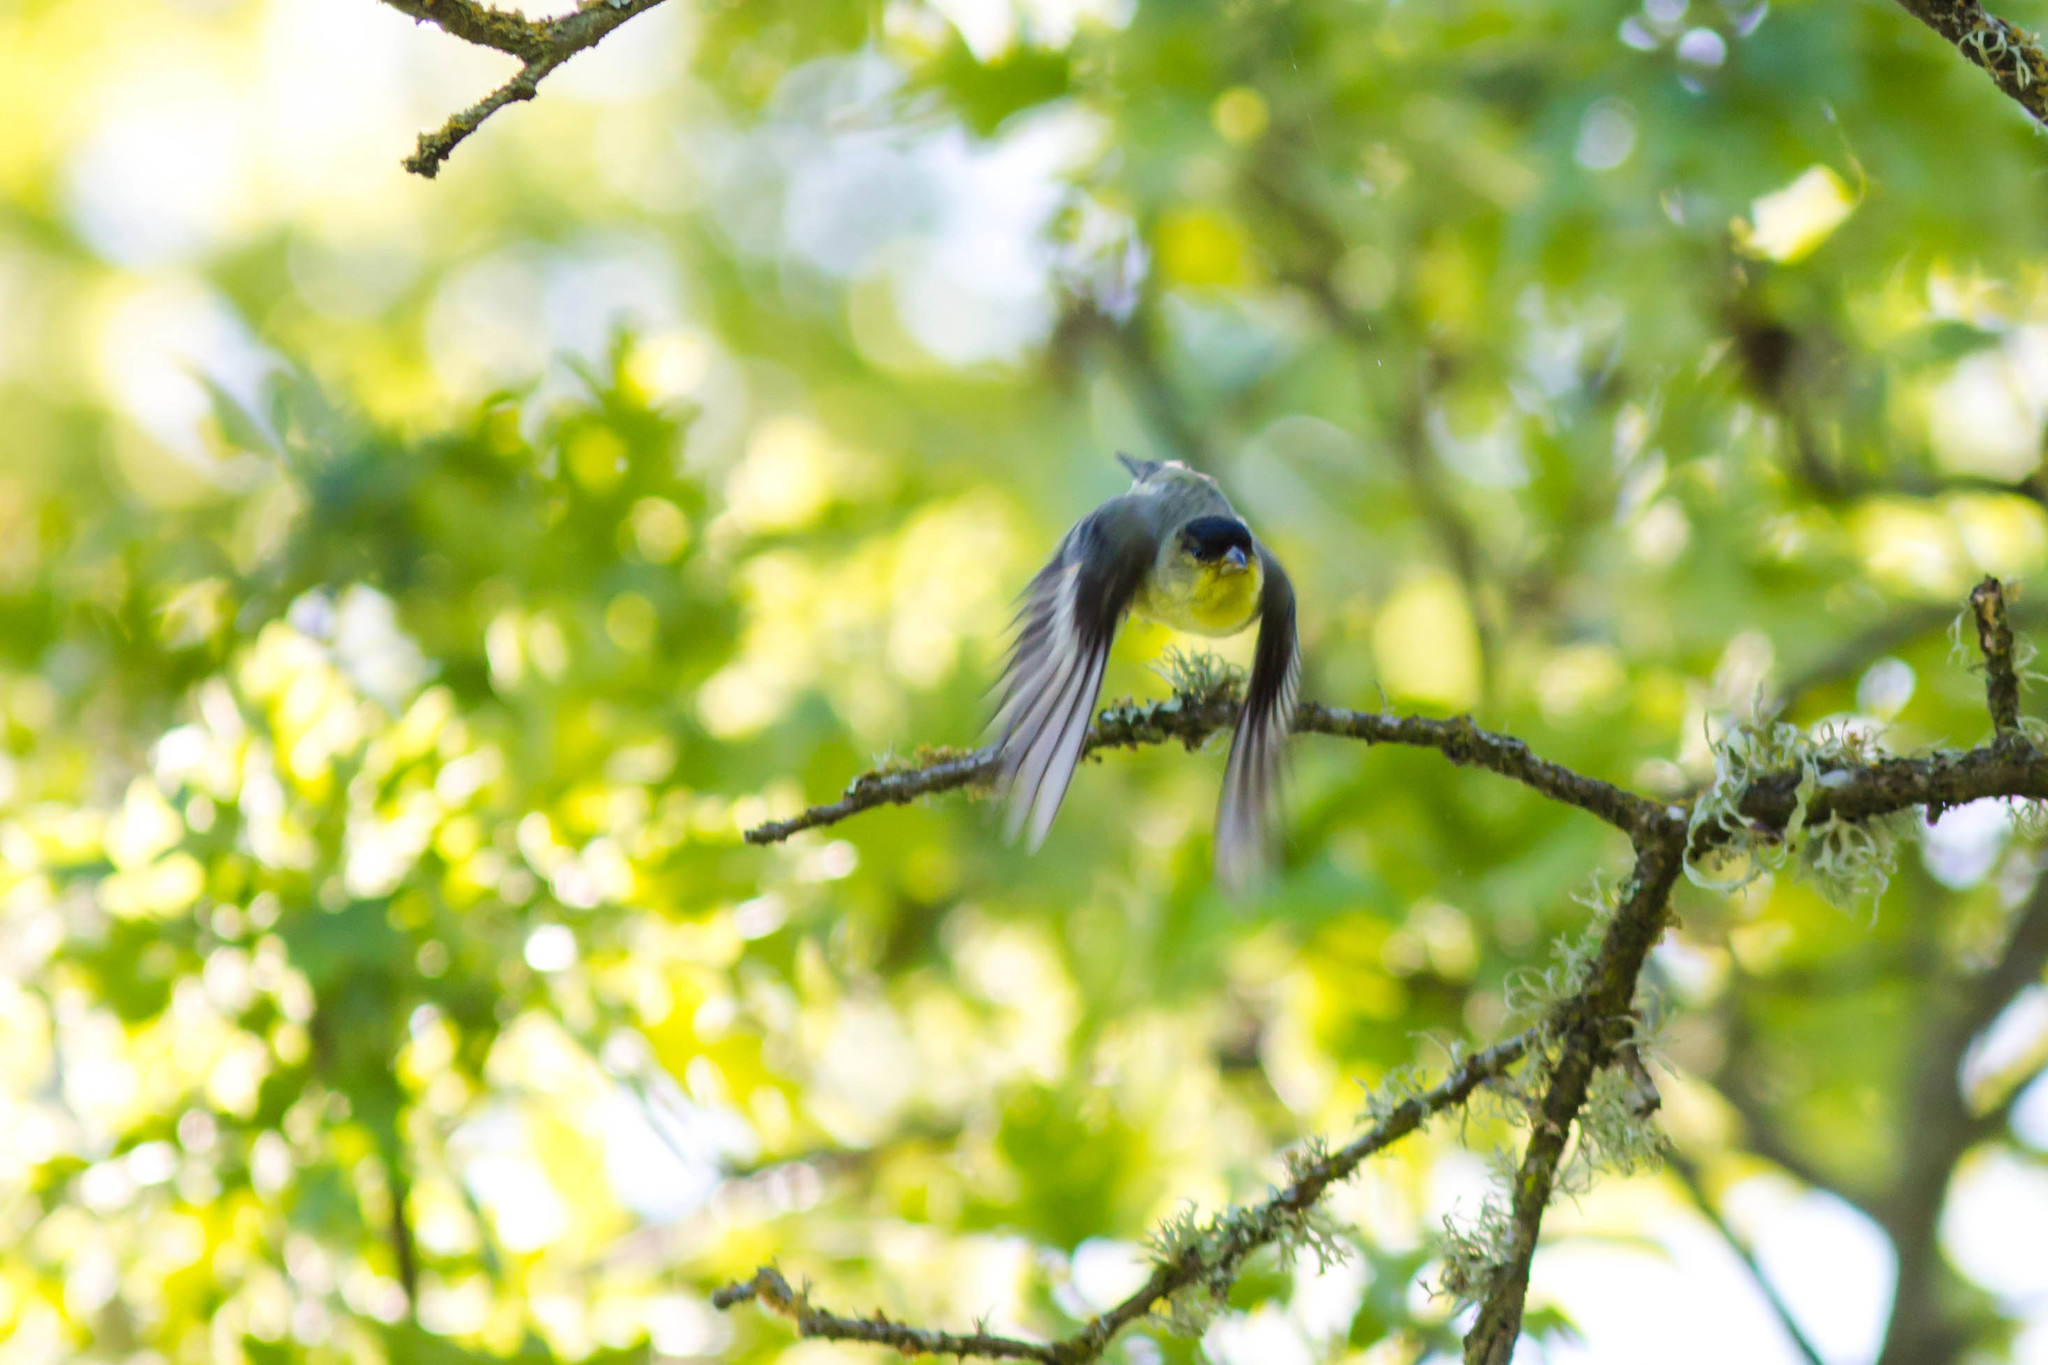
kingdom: Animalia
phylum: Chordata
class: Aves
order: Passeriformes
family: Fringillidae
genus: Spinus
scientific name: Spinus psaltria
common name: Lesser goldfinch
